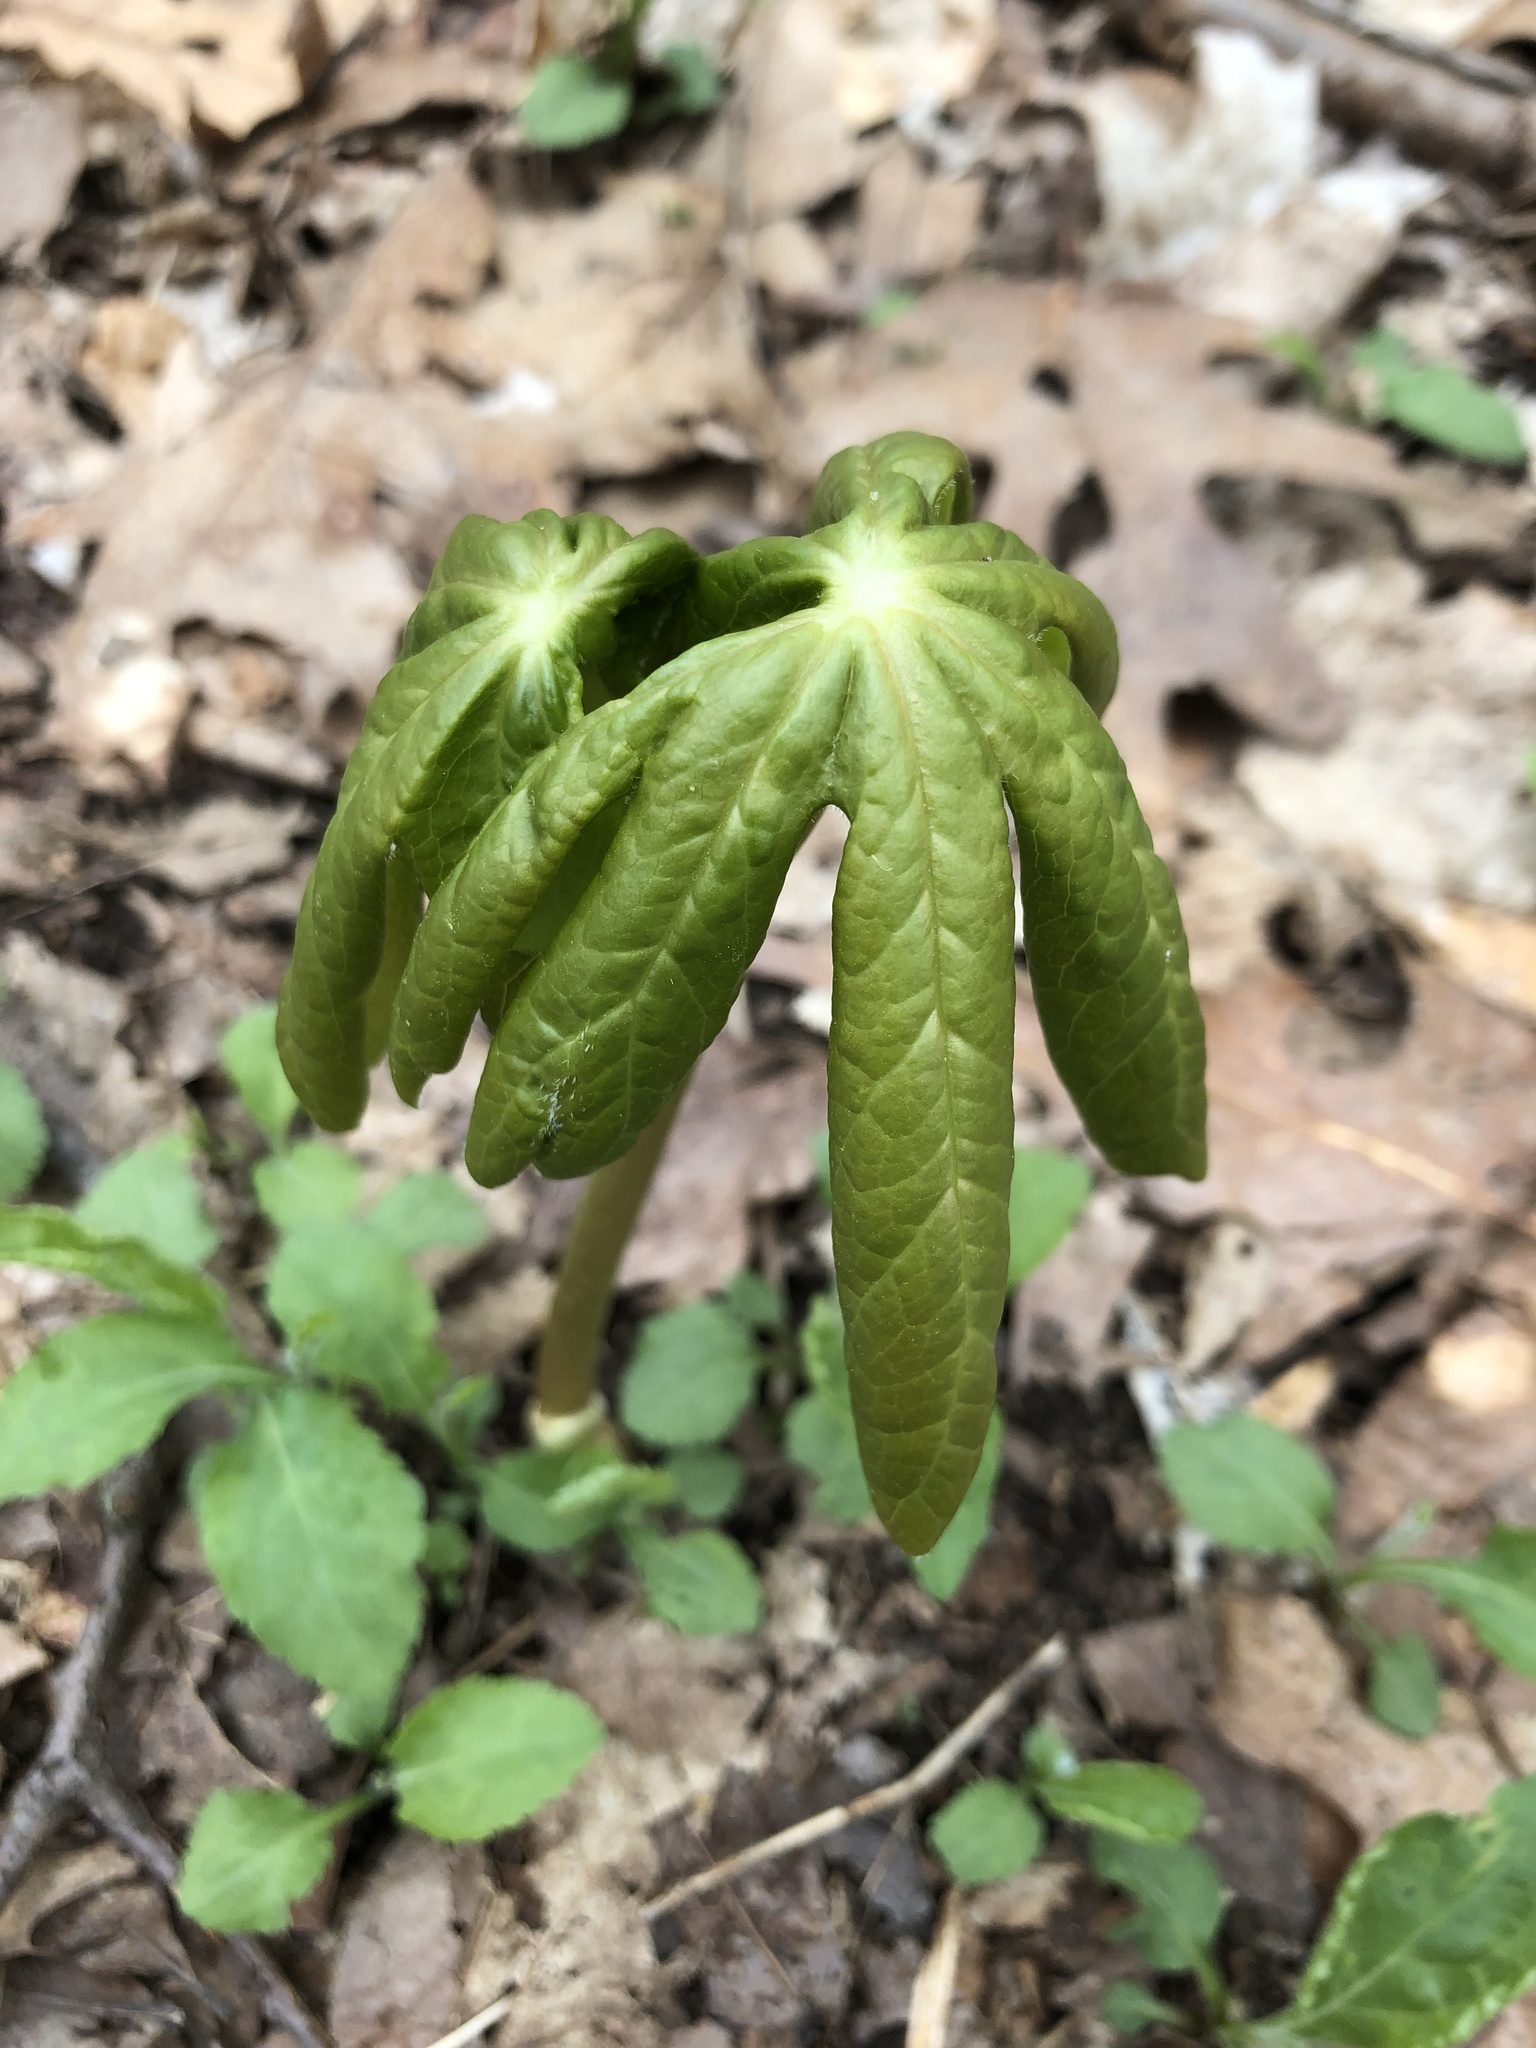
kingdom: Plantae
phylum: Tracheophyta
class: Magnoliopsida
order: Ranunculales
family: Berberidaceae
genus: Podophyllum
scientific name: Podophyllum peltatum
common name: Wild mandrake
